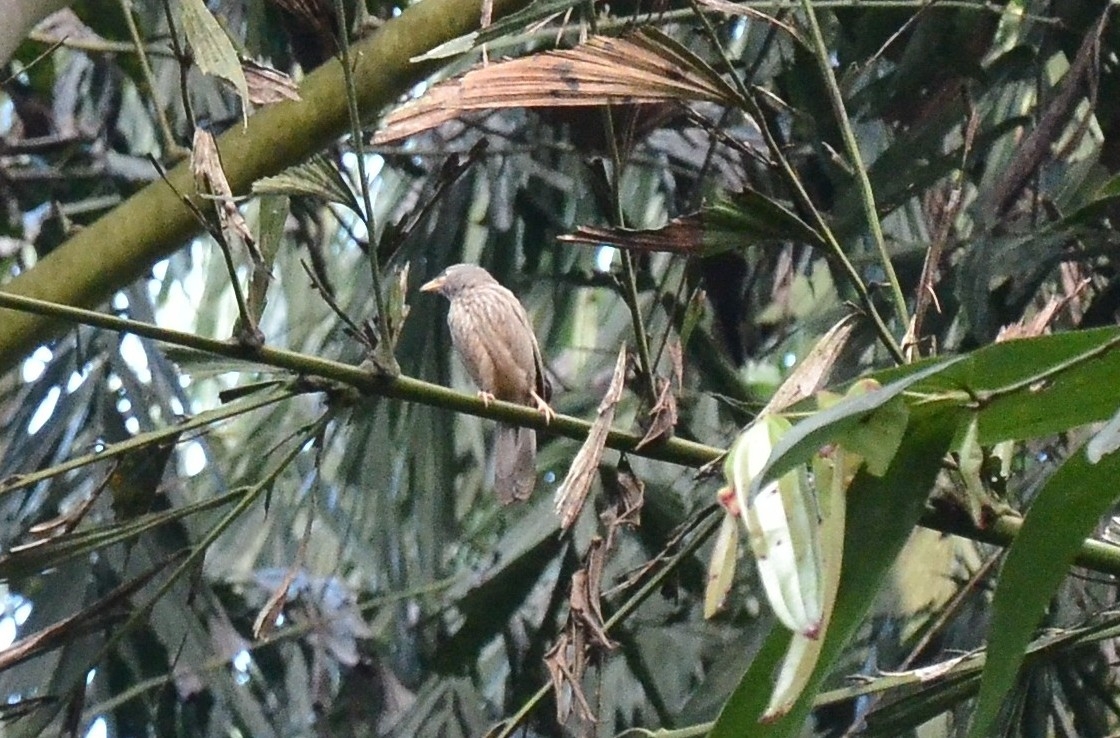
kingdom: Animalia
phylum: Chordata
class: Aves
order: Passeriformes
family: Leiothrichidae
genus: Turdoides
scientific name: Turdoides striata
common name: Jungle babbler
